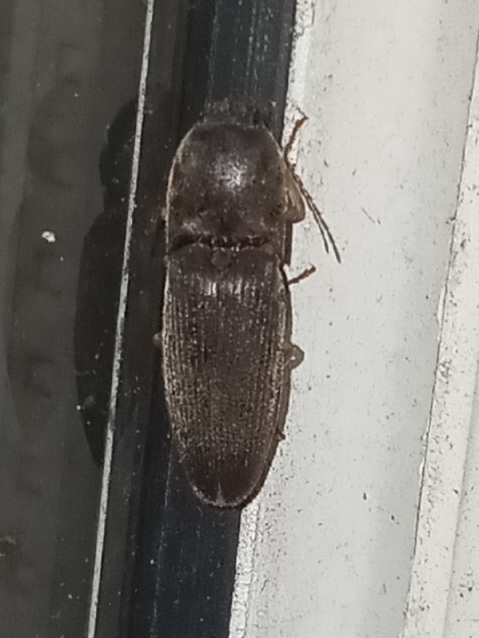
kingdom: Animalia
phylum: Arthropoda
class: Insecta
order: Coleoptera
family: Elateridae
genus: Conoderus
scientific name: Conoderus exsul
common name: Click beetle
